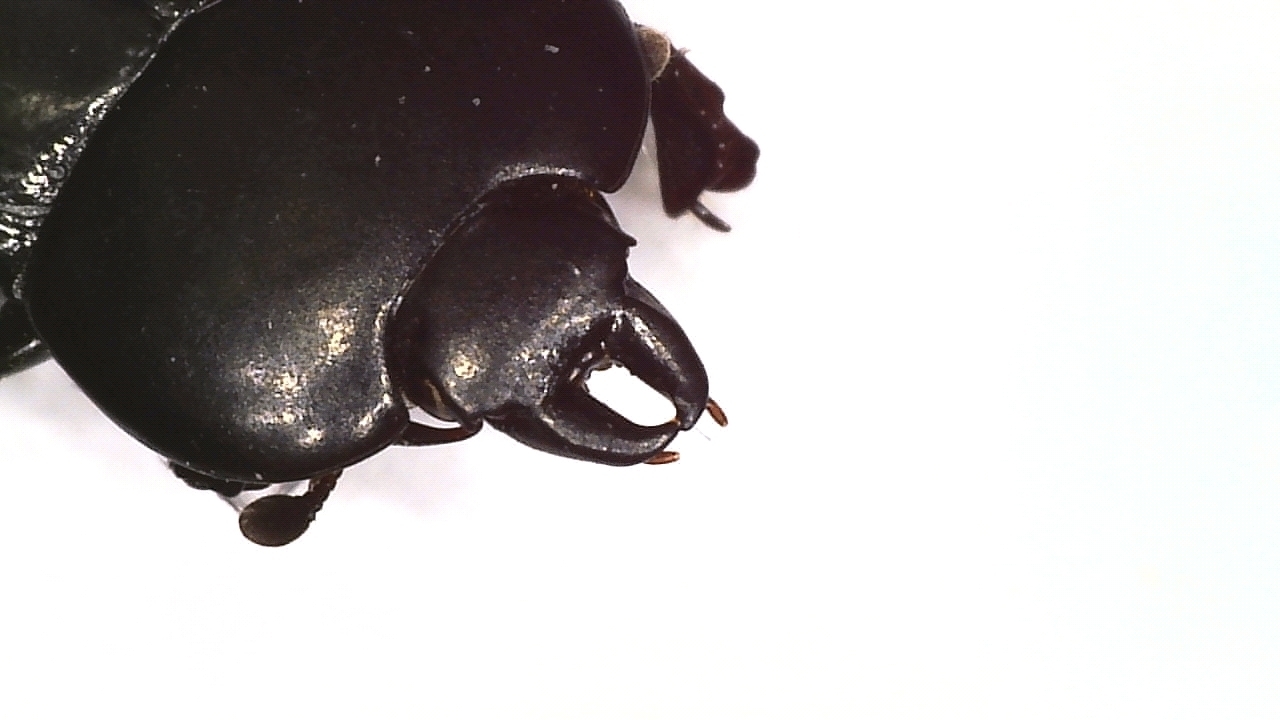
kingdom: Animalia
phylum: Arthropoda
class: Insecta
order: Coleoptera
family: Histeridae
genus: Hololepta
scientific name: Hololepta plana
